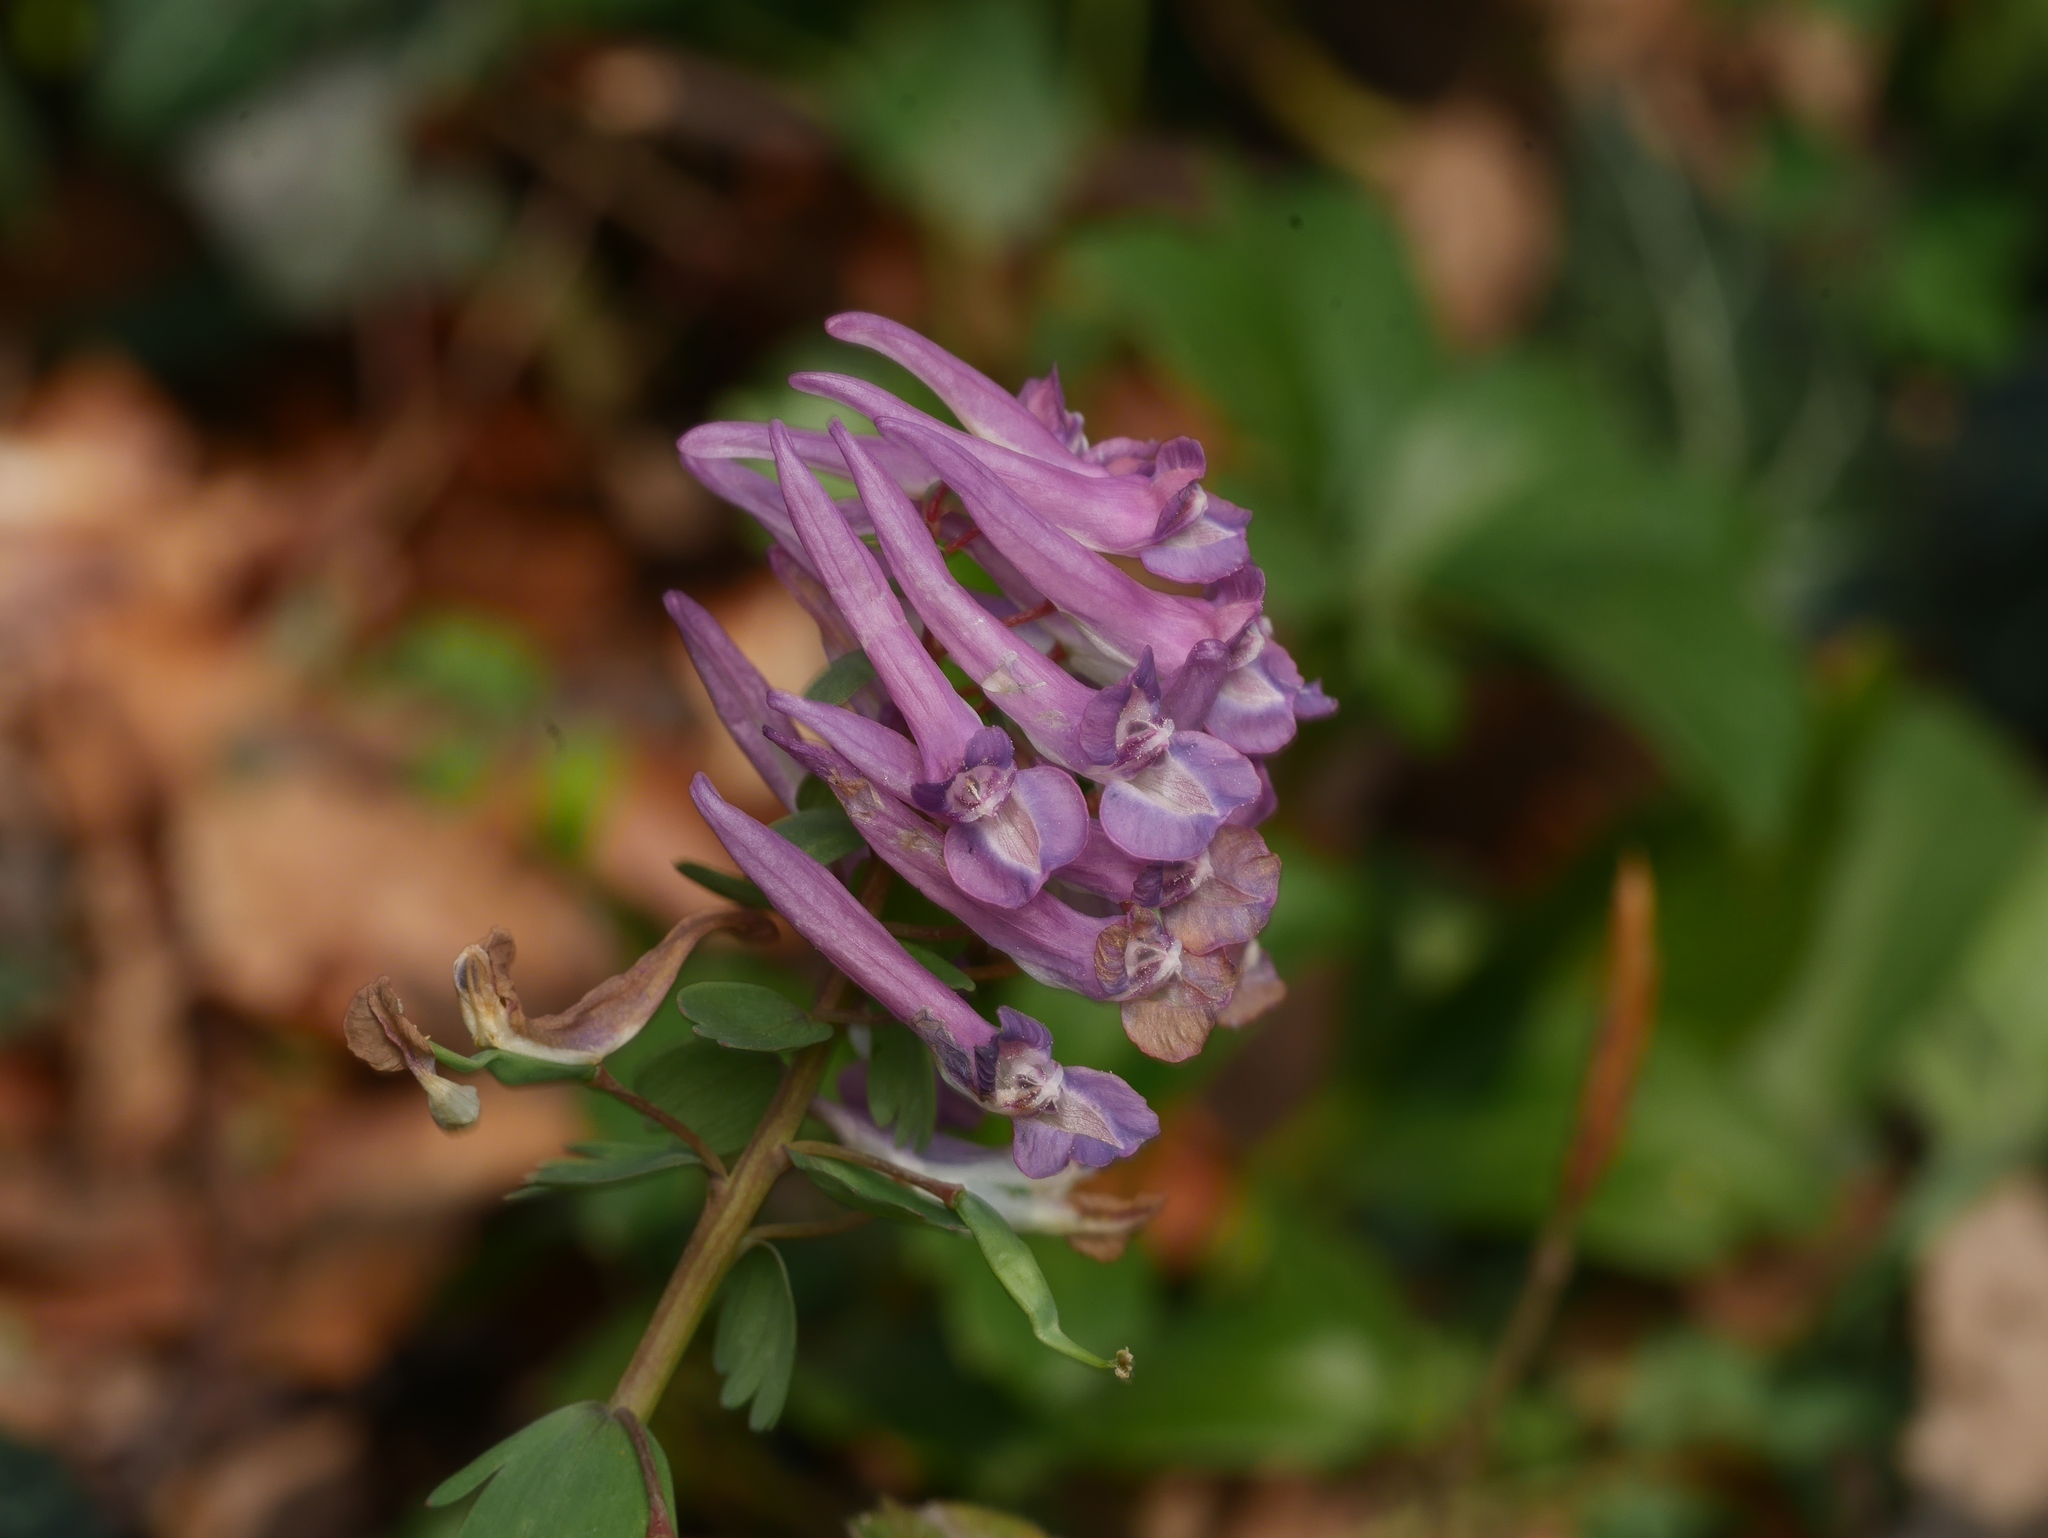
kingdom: Plantae
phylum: Tracheophyta
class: Magnoliopsida
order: Ranunculales
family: Papaveraceae
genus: Corydalis
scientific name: Corydalis solida
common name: Bird-in-a-bush
